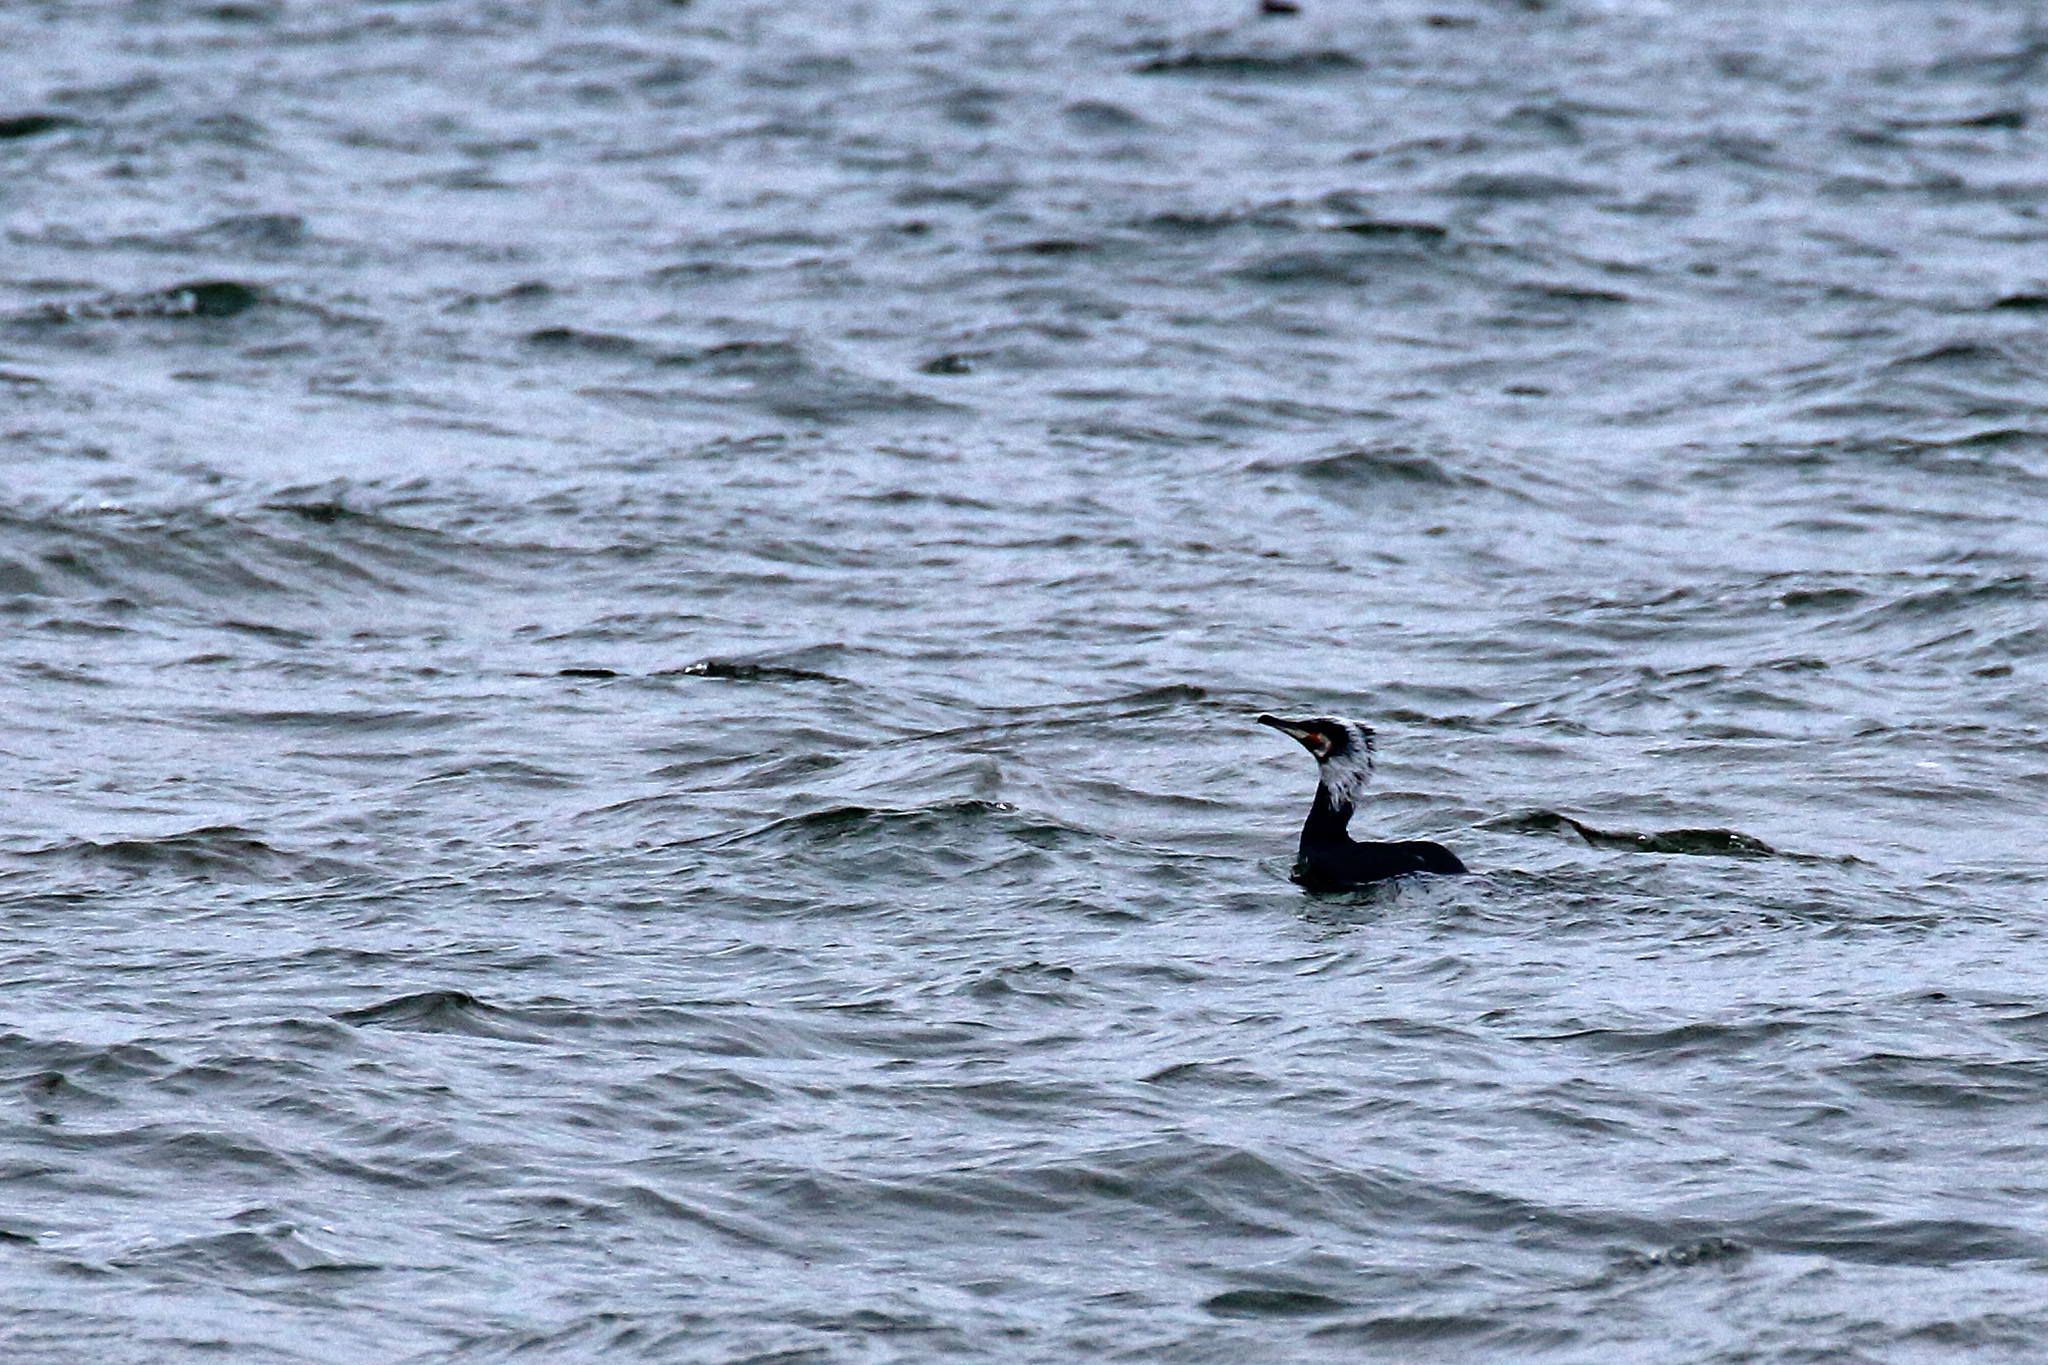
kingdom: Animalia
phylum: Chordata
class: Aves
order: Suliformes
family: Phalacrocoracidae
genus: Phalacrocorax
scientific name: Phalacrocorax carbo
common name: Great cormorant
